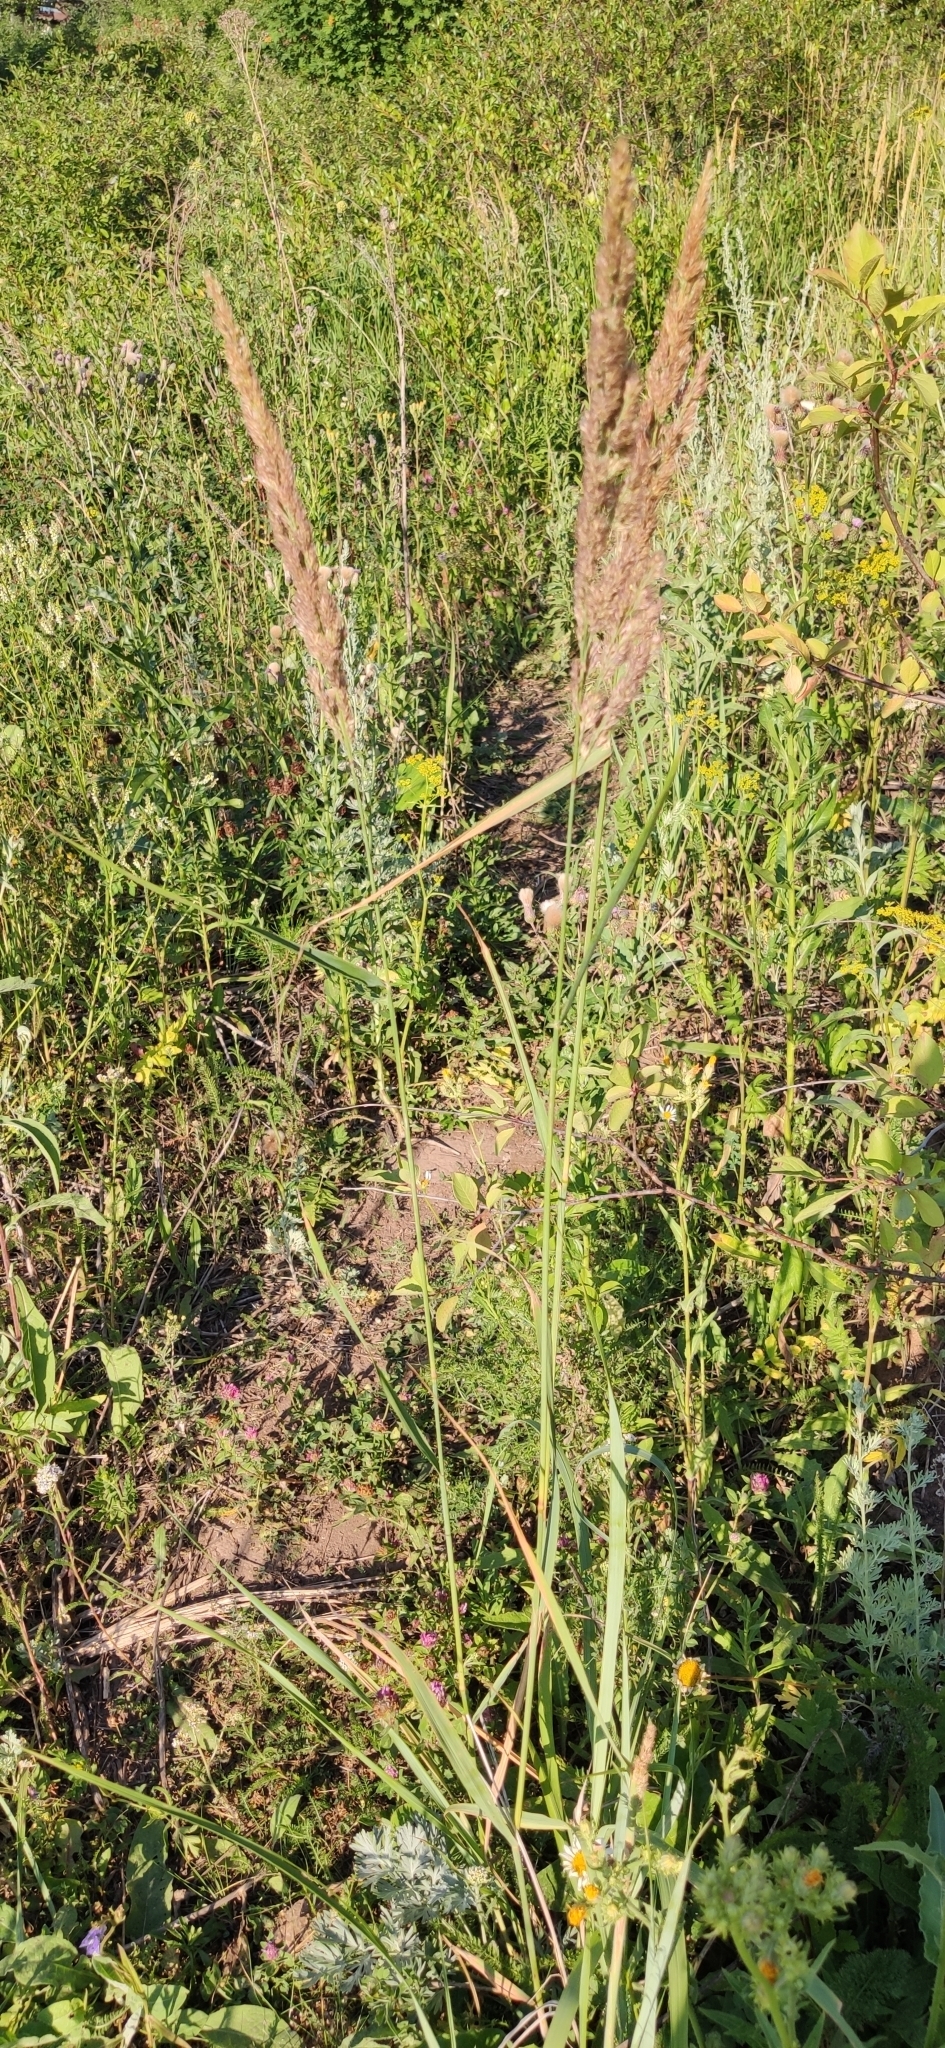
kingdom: Plantae
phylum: Tracheophyta
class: Liliopsida
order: Poales
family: Poaceae
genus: Calamagrostis
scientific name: Calamagrostis epigejos
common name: Wood small-reed
